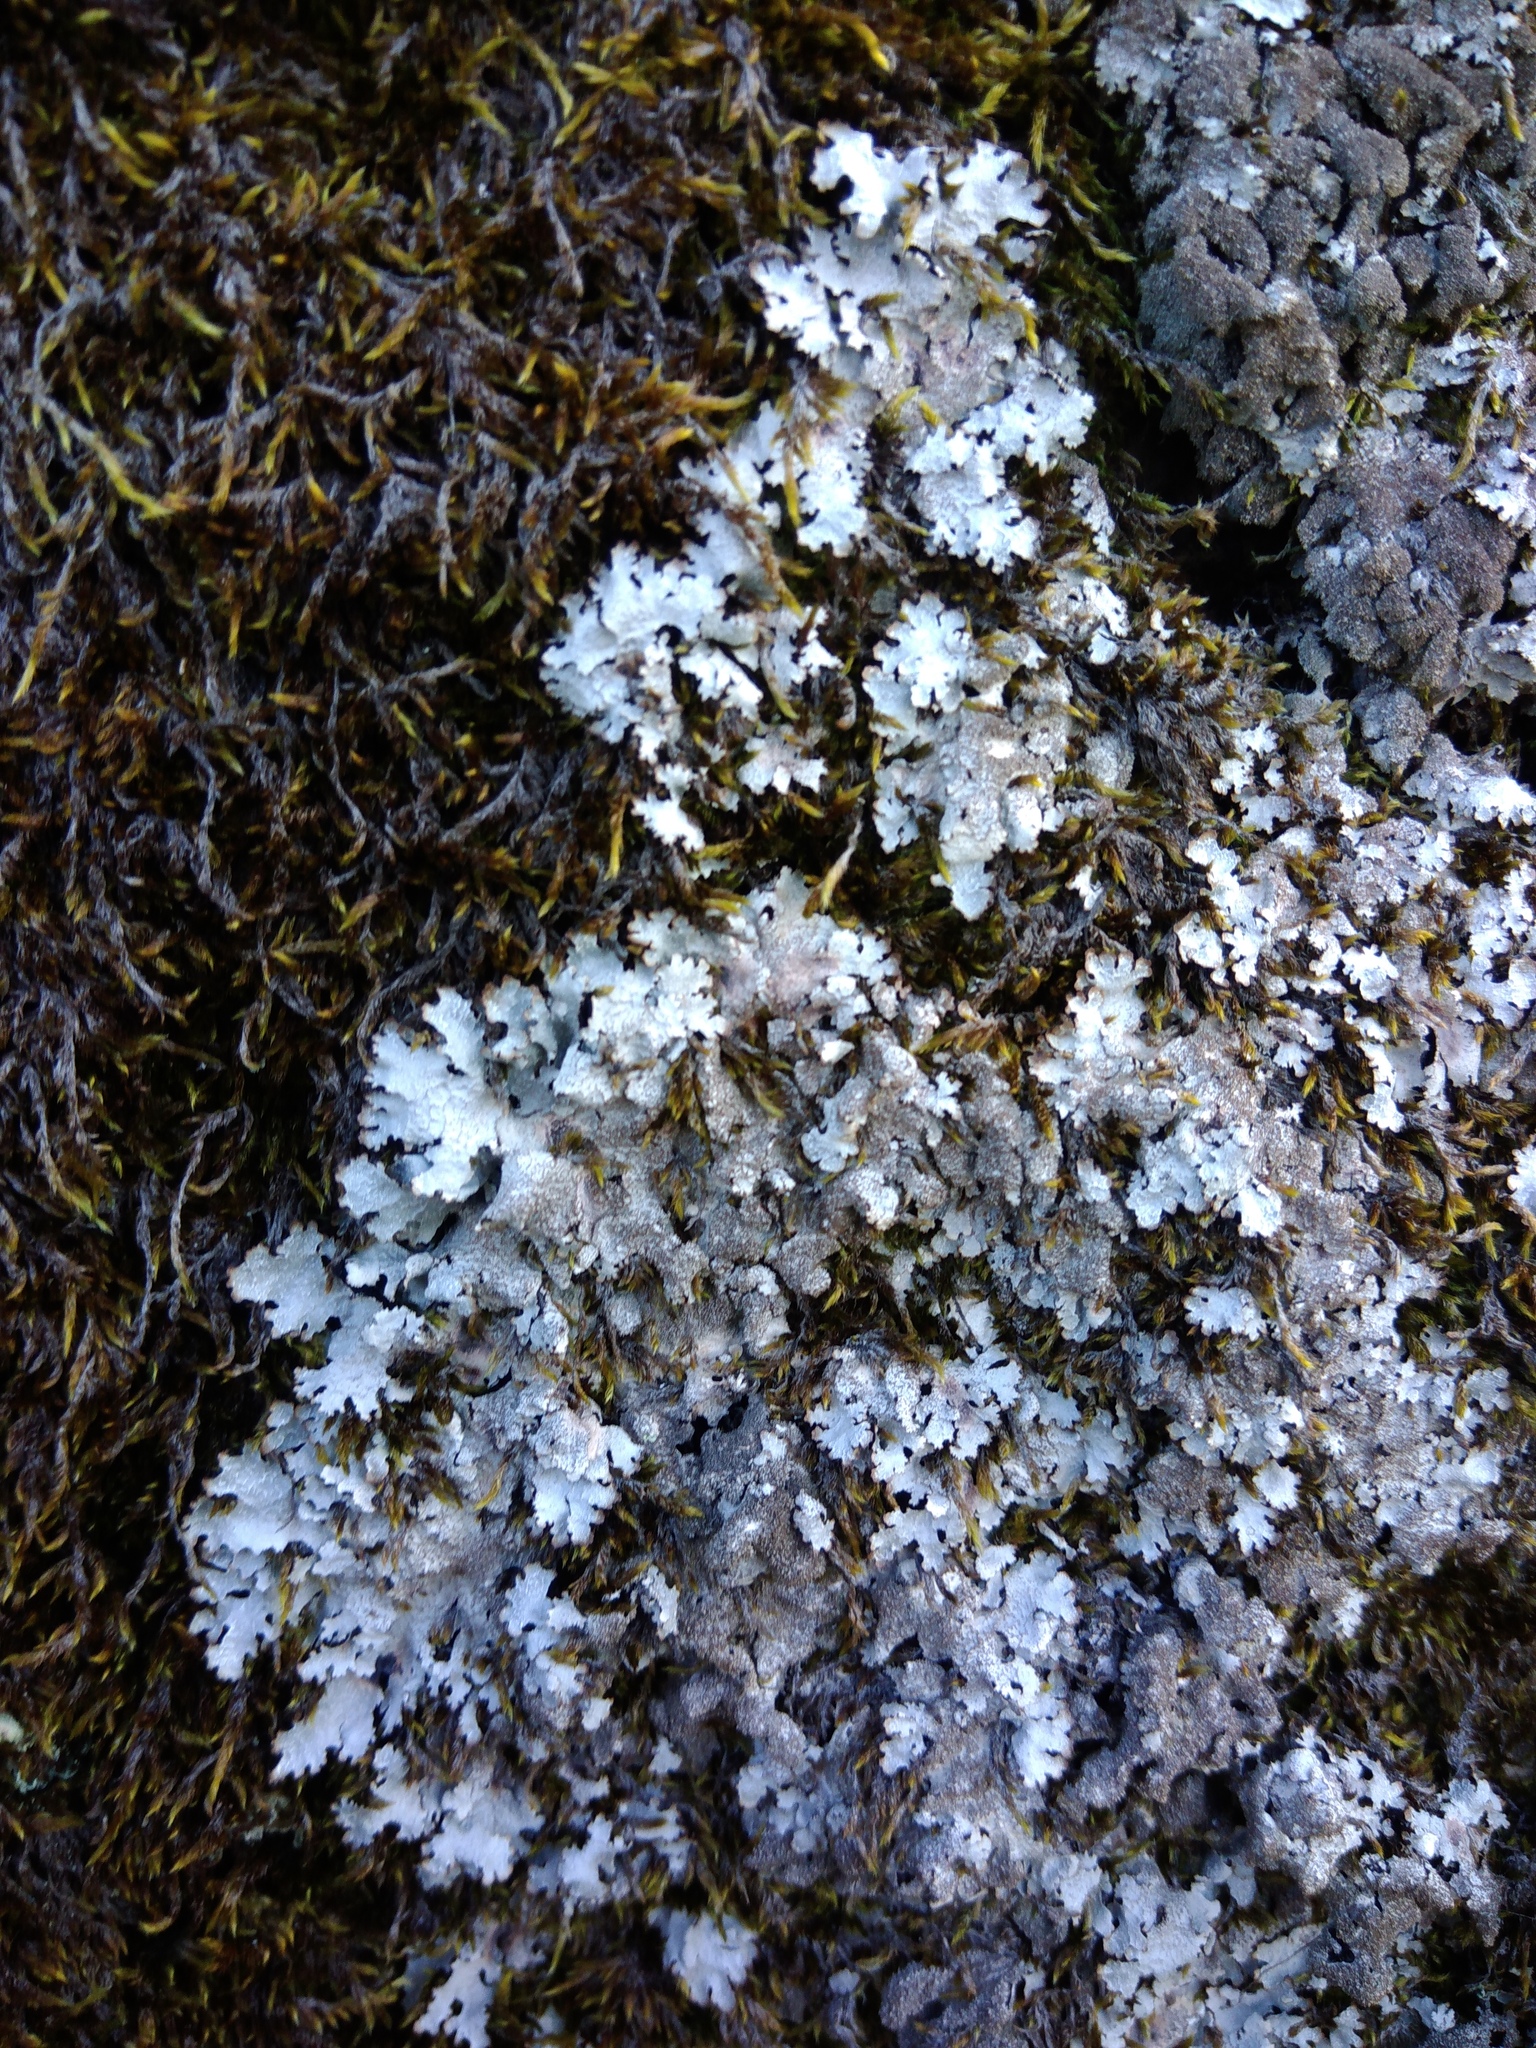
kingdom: Fungi
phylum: Ascomycota
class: Lecanoromycetes
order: Lecanorales
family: Parmeliaceae
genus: Parmelia
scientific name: Parmelia saxatilis
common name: Salted shield lichen
